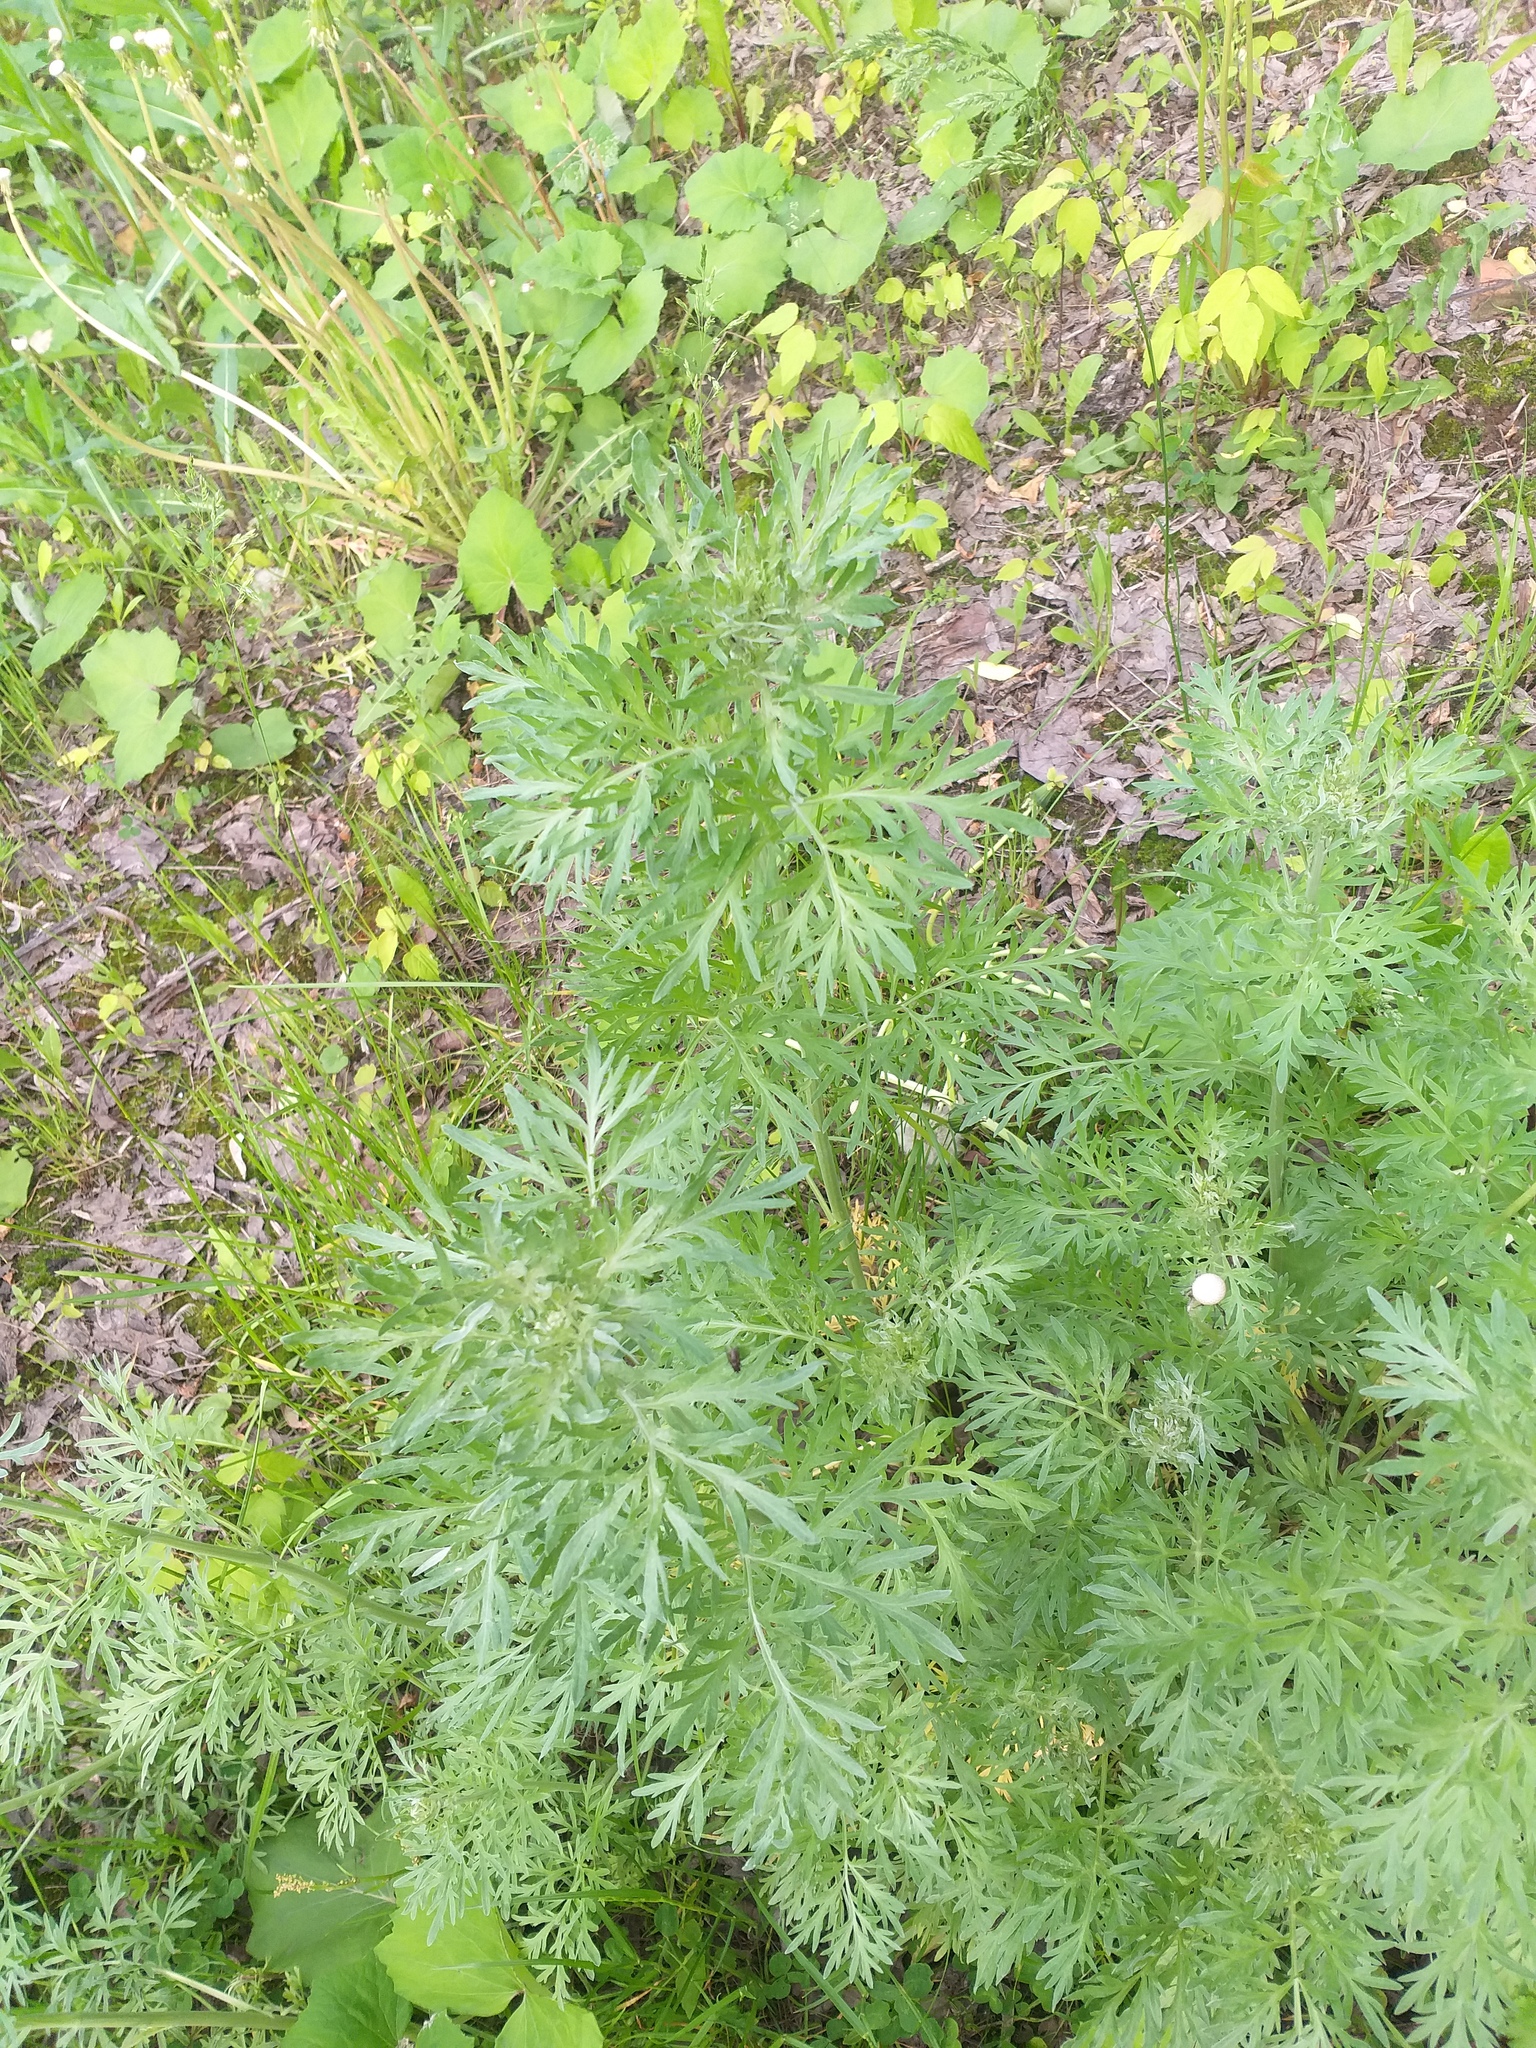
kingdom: Plantae
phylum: Tracheophyta
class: Magnoliopsida
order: Asterales
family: Asteraceae
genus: Artemisia
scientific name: Artemisia absinthium
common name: Wormwood
